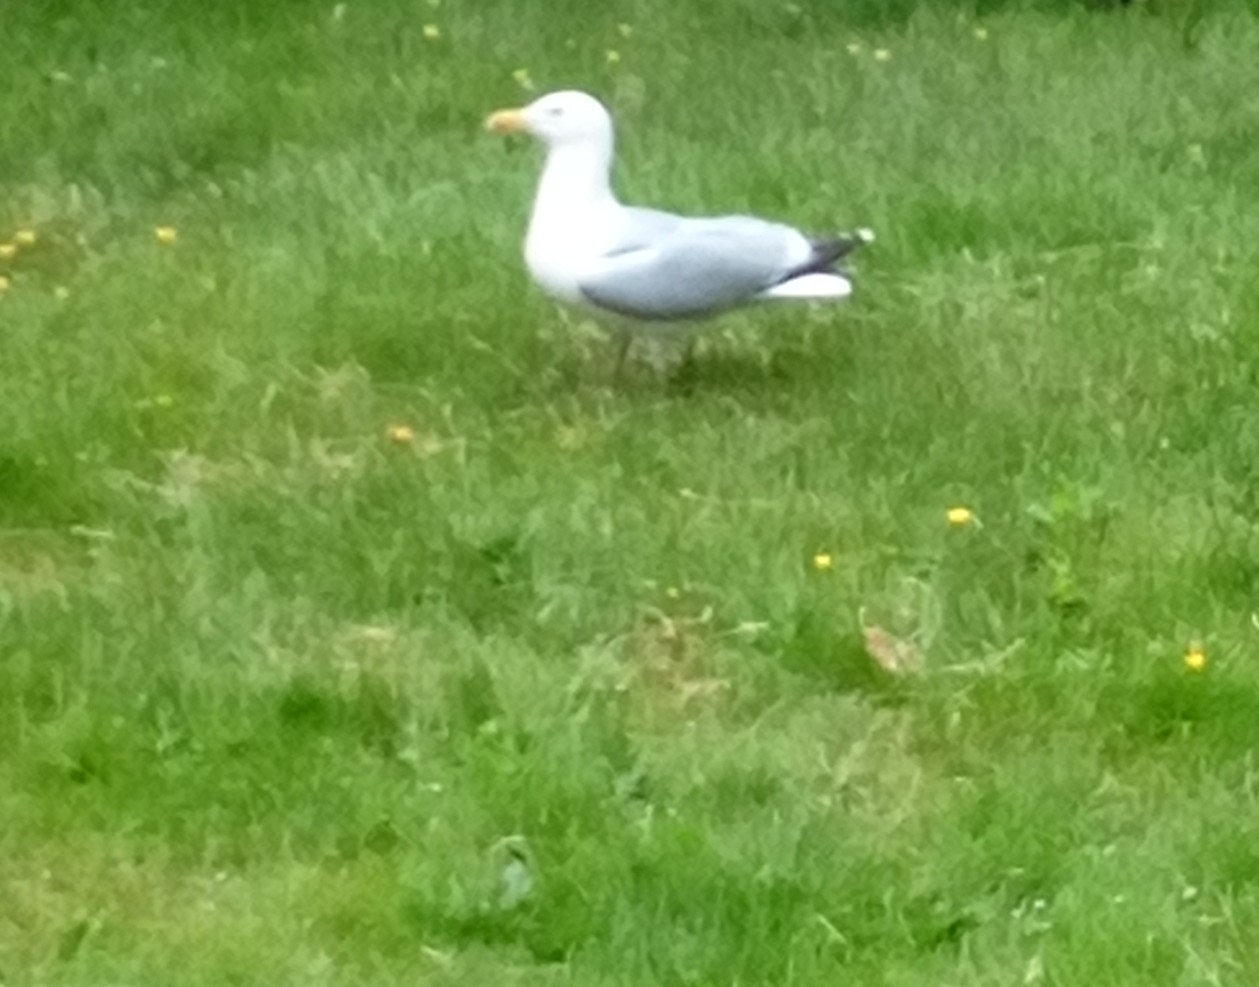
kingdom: Animalia
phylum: Chordata
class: Aves
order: Charadriiformes
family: Laridae
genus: Larus
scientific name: Larus argentatus
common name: Herring gull
